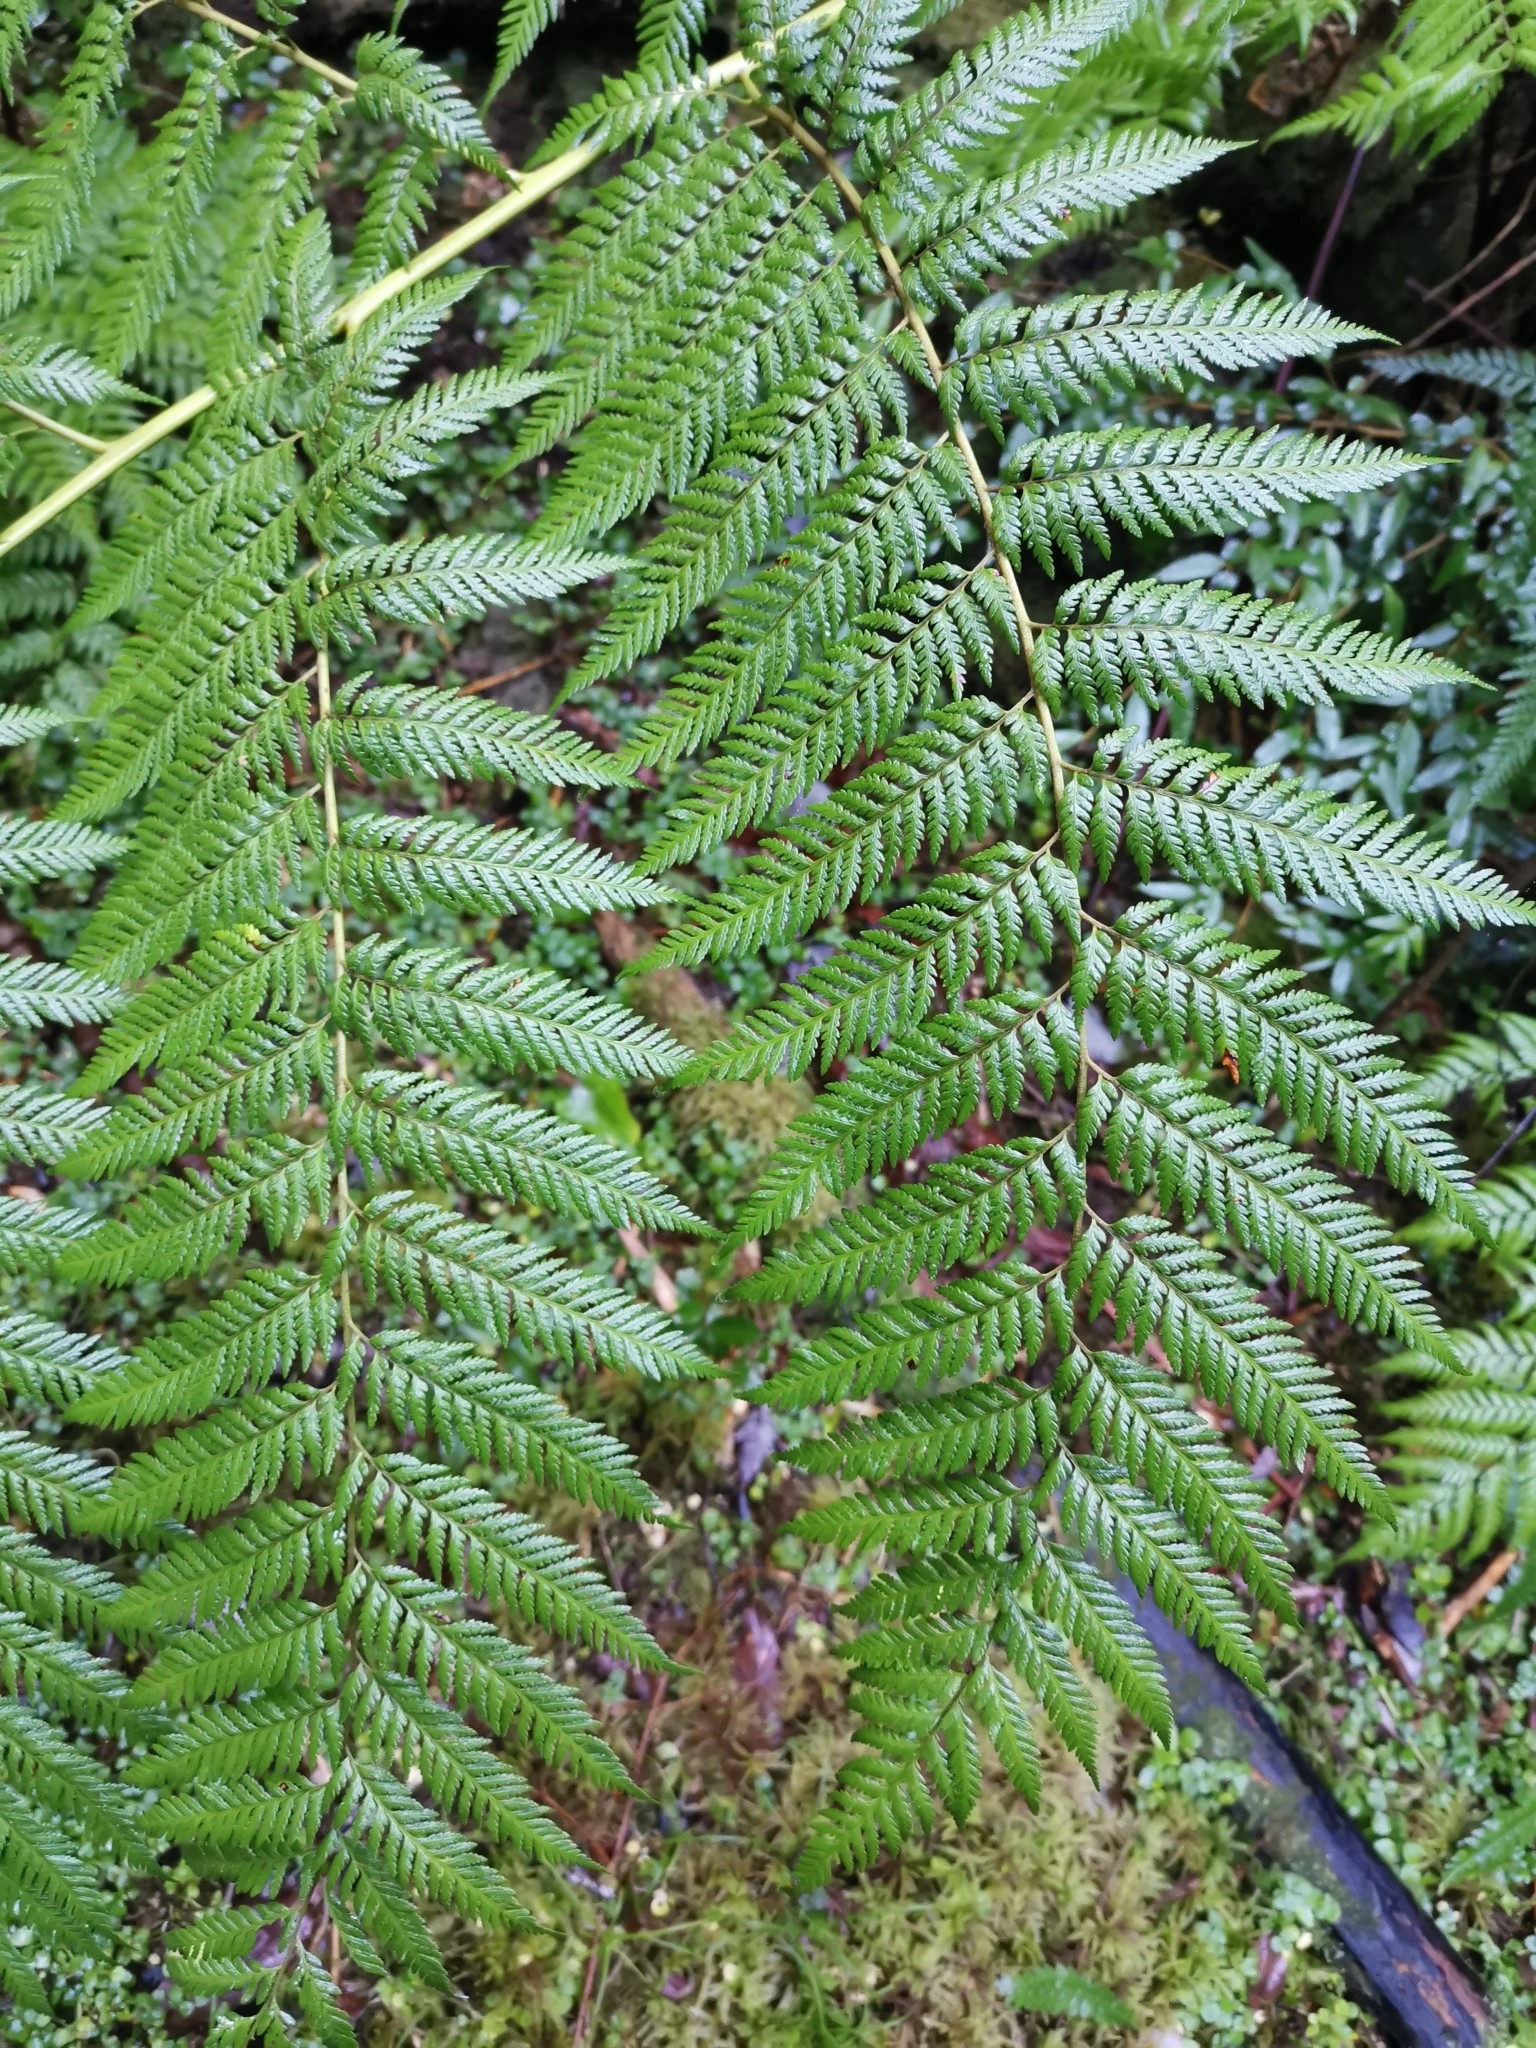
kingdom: Plantae
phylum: Tracheophyta
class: Polypodiopsida
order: Cyatheales
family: Dicksoniaceae
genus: Lophosoria
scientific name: Lophosoria quadripinnata
